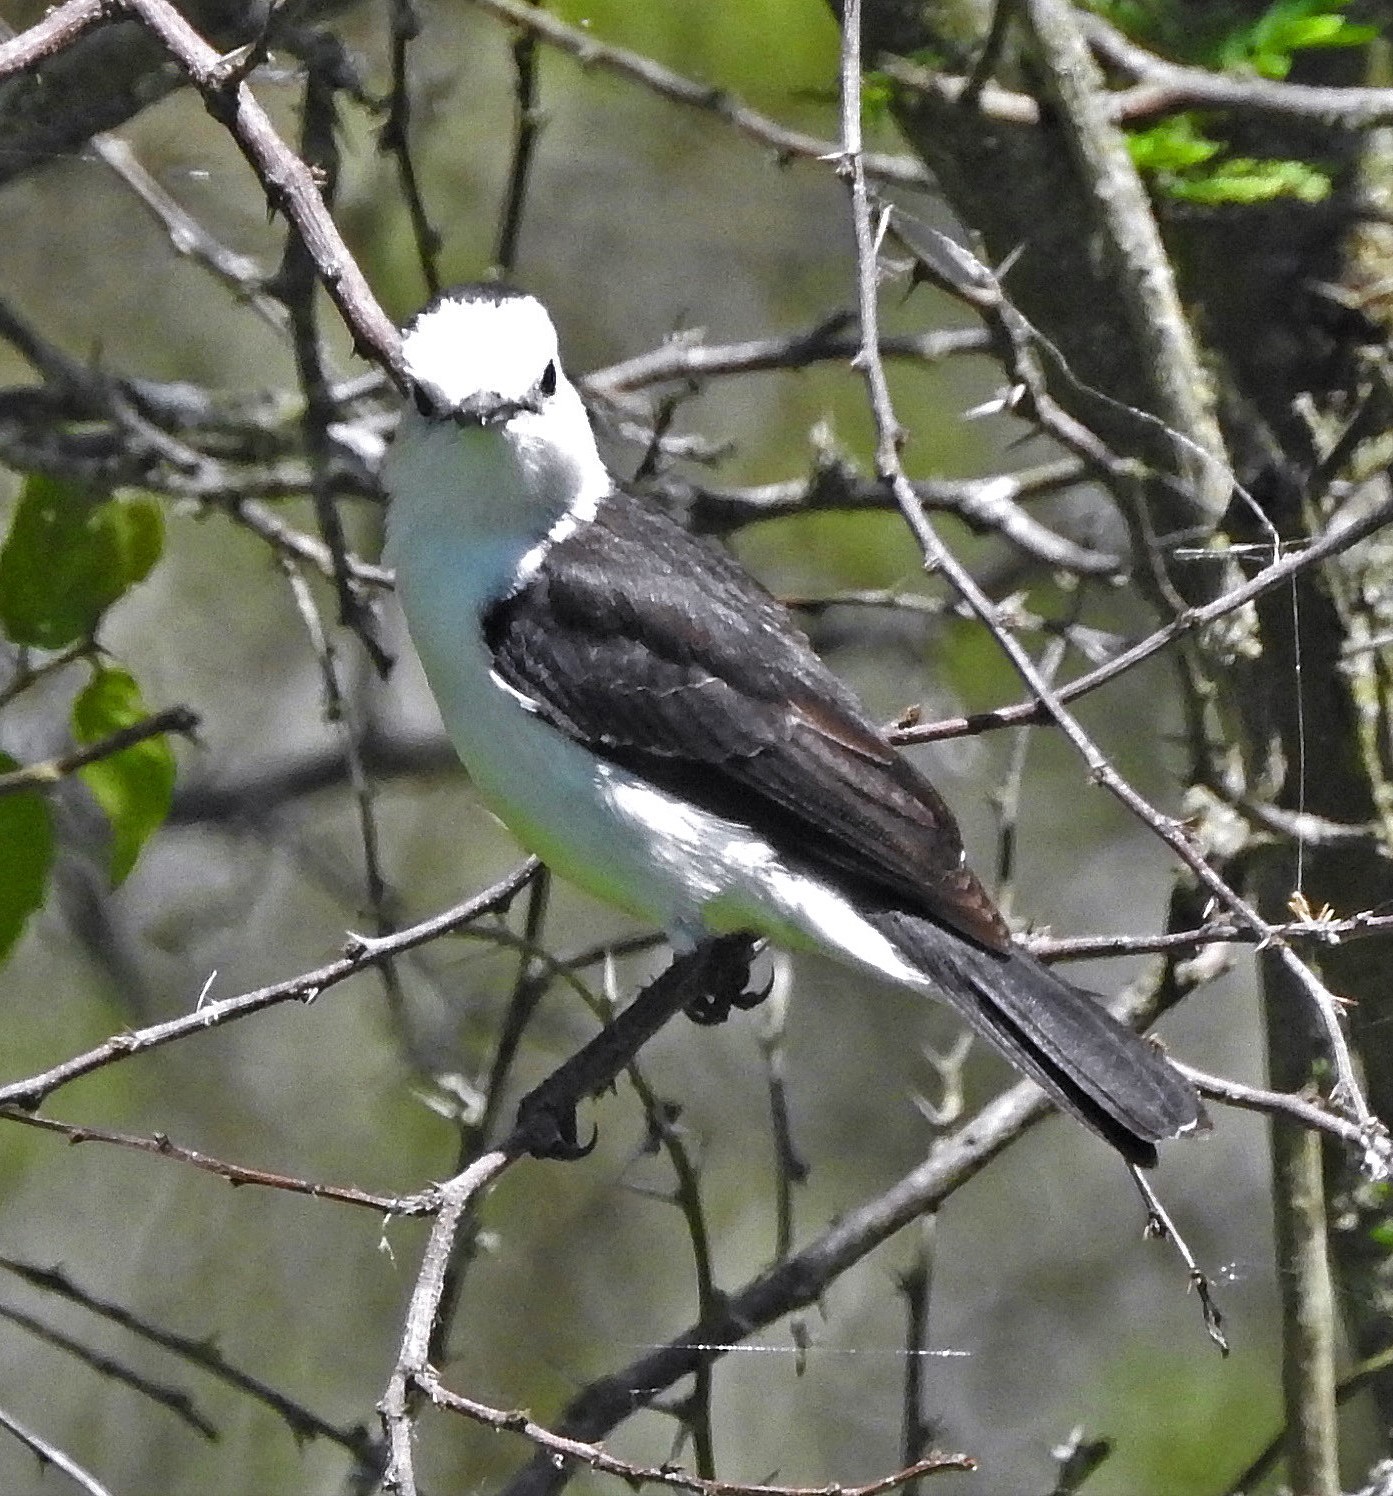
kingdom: Animalia
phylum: Chordata
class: Aves
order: Passeriformes
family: Tyrannidae
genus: Fluvicola
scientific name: Fluvicola pica
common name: Pied water-tyrant
